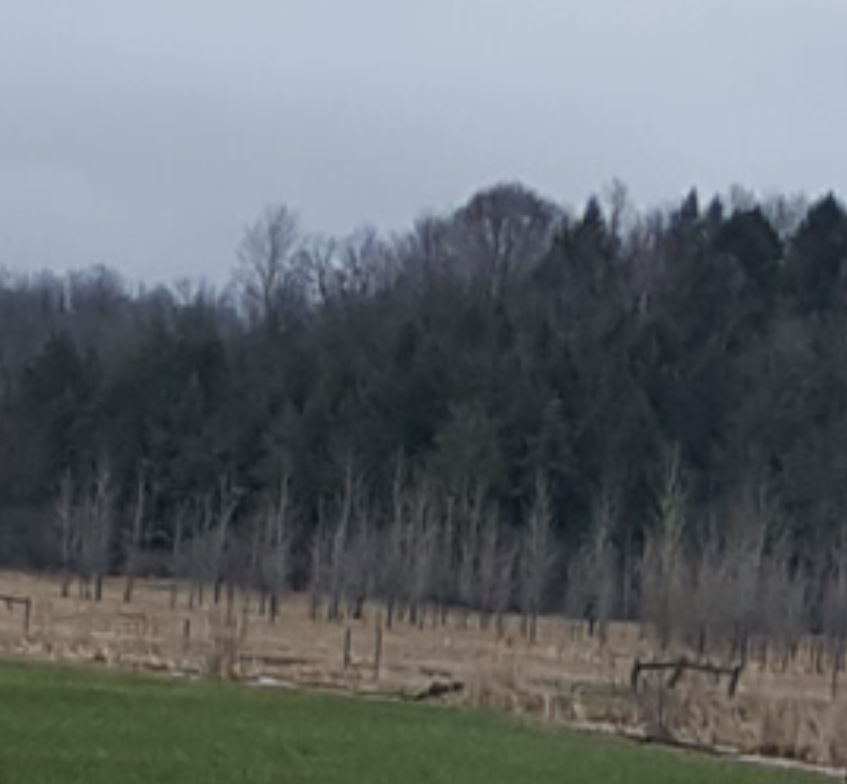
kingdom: Plantae
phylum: Tracheophyta
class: Pinopsida
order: Pinales
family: Pinaceae
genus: Tsuga
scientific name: Tsuga canadensis
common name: Eastern hemlock
